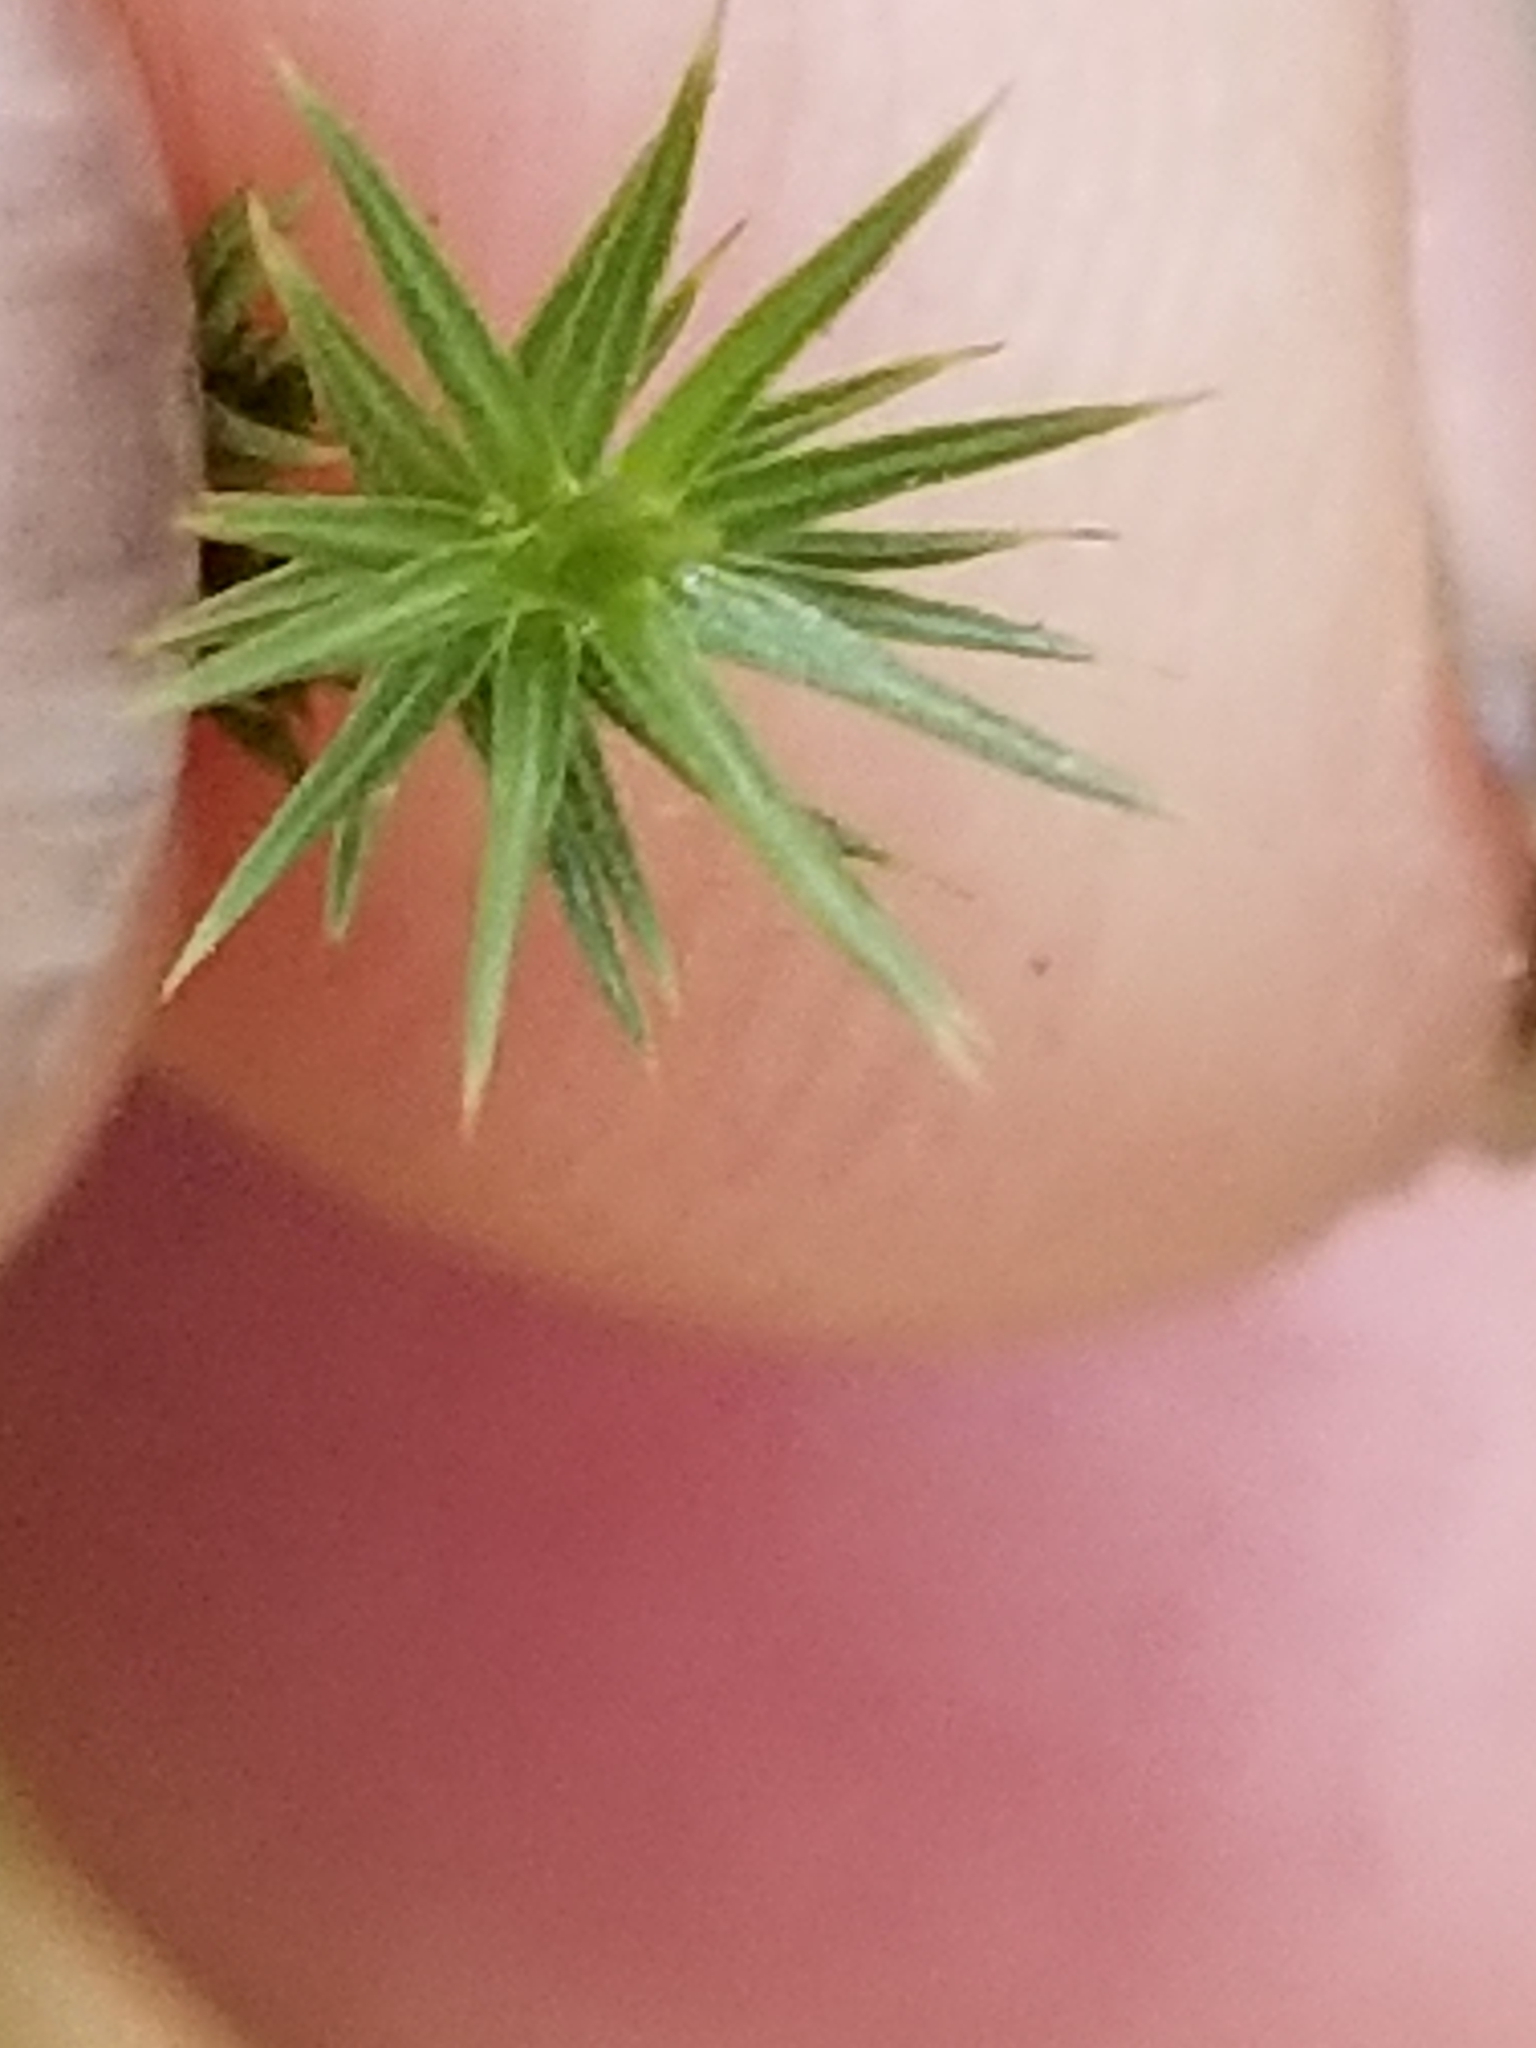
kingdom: Plantae
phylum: Bryophyta
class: Polytrichopsida
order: Polytrichales
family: Polytrichaceae
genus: Polytrichum
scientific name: Polytrichum juniperinum
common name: Juniper haircap moss
